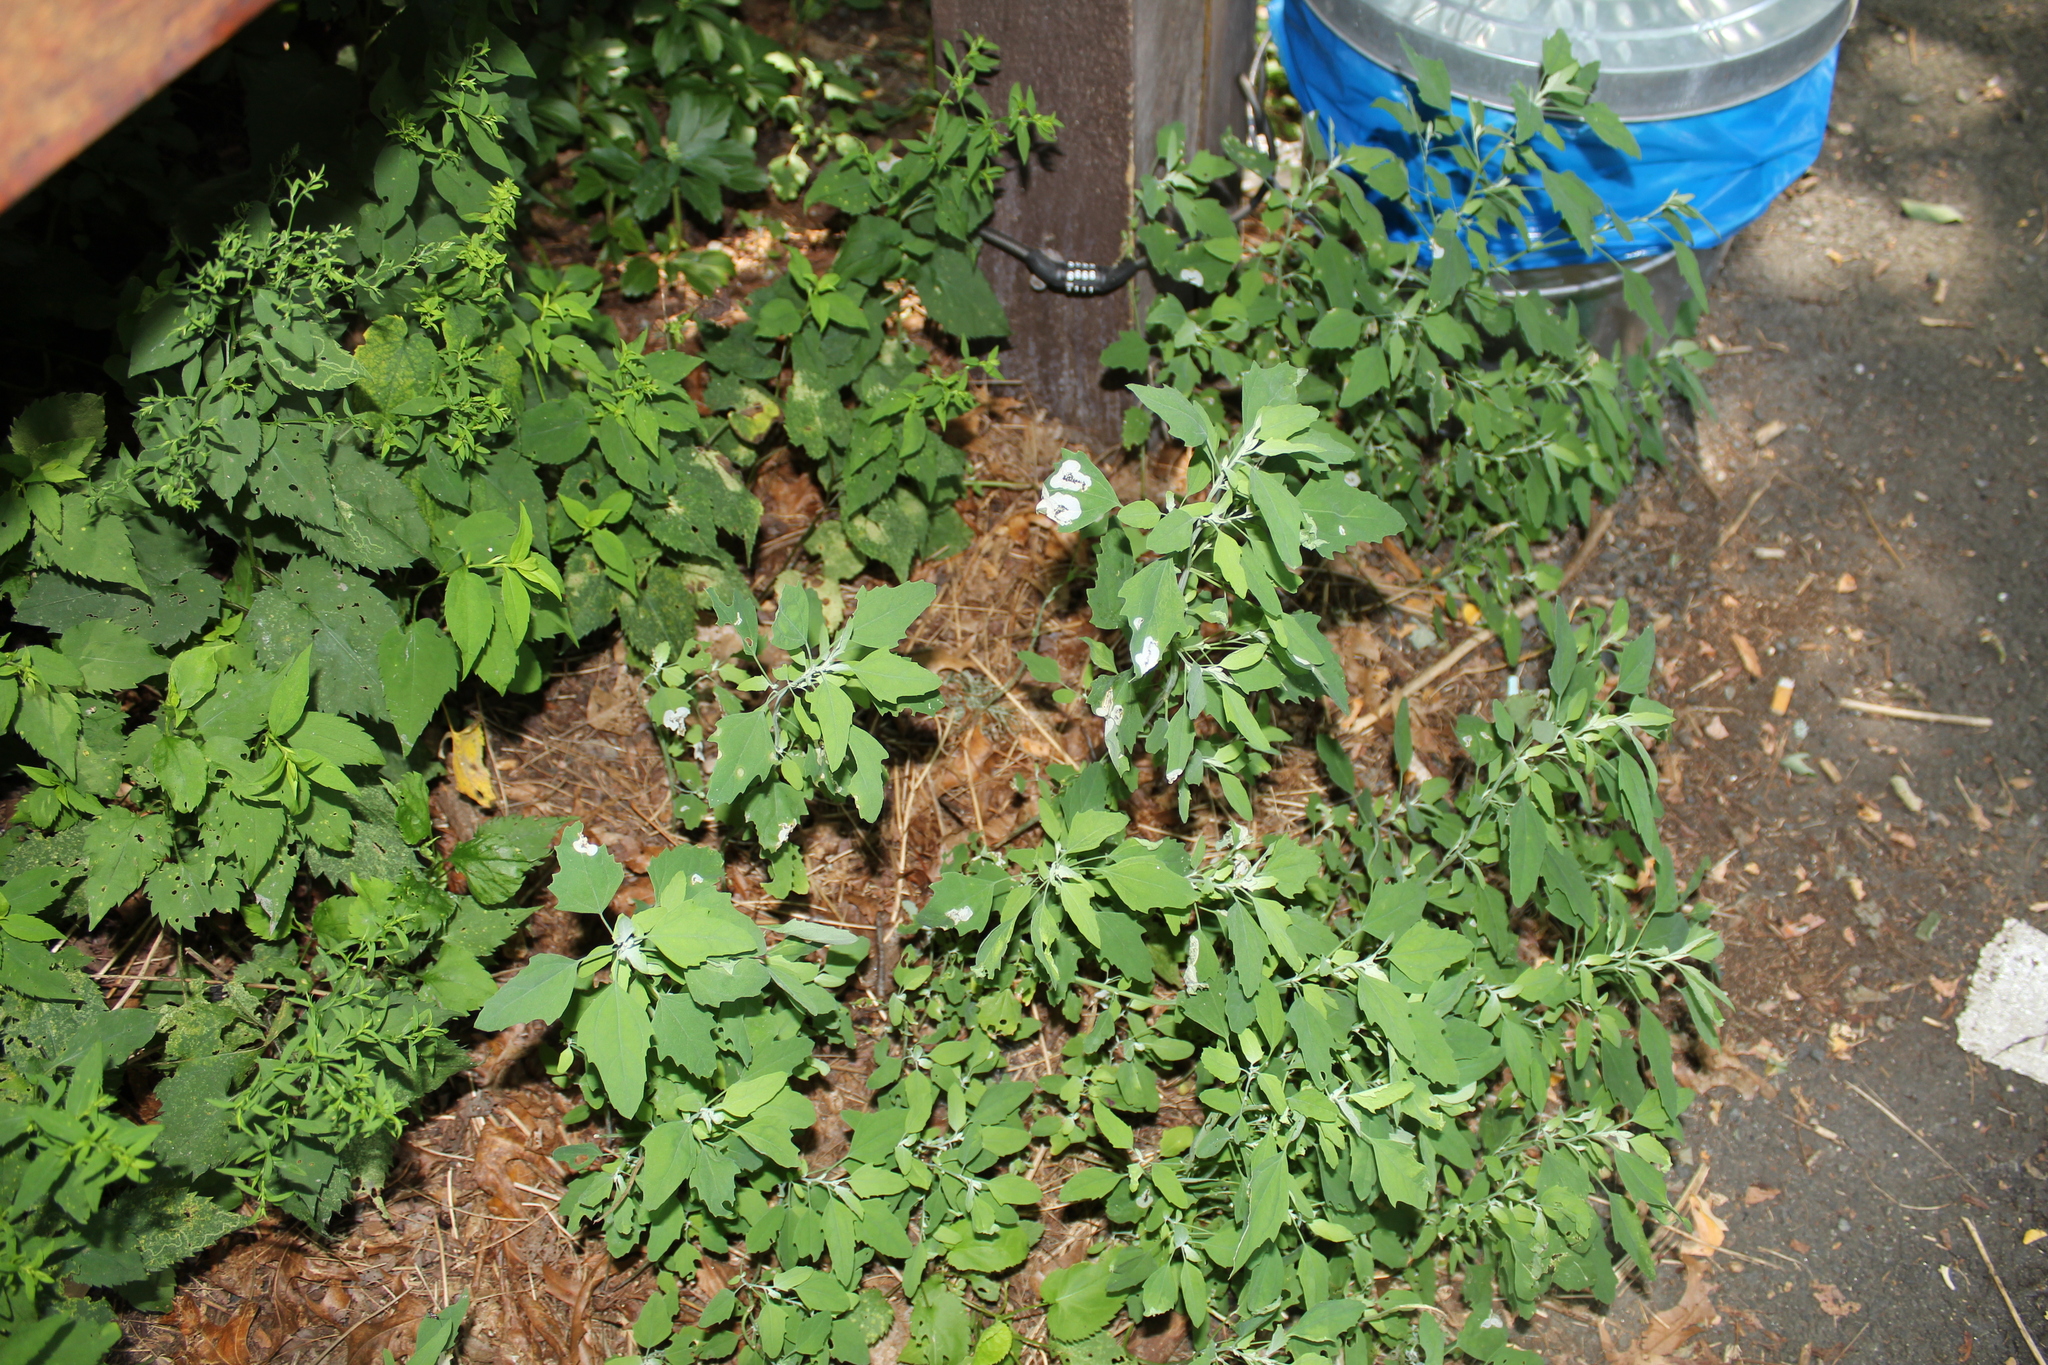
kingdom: Plantae
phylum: Tracheophyta
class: Magnoliopsida
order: Caryophyllales
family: Amaranthaceae
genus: Chenopodium
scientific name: Chenopodium album
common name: Fat-hen
